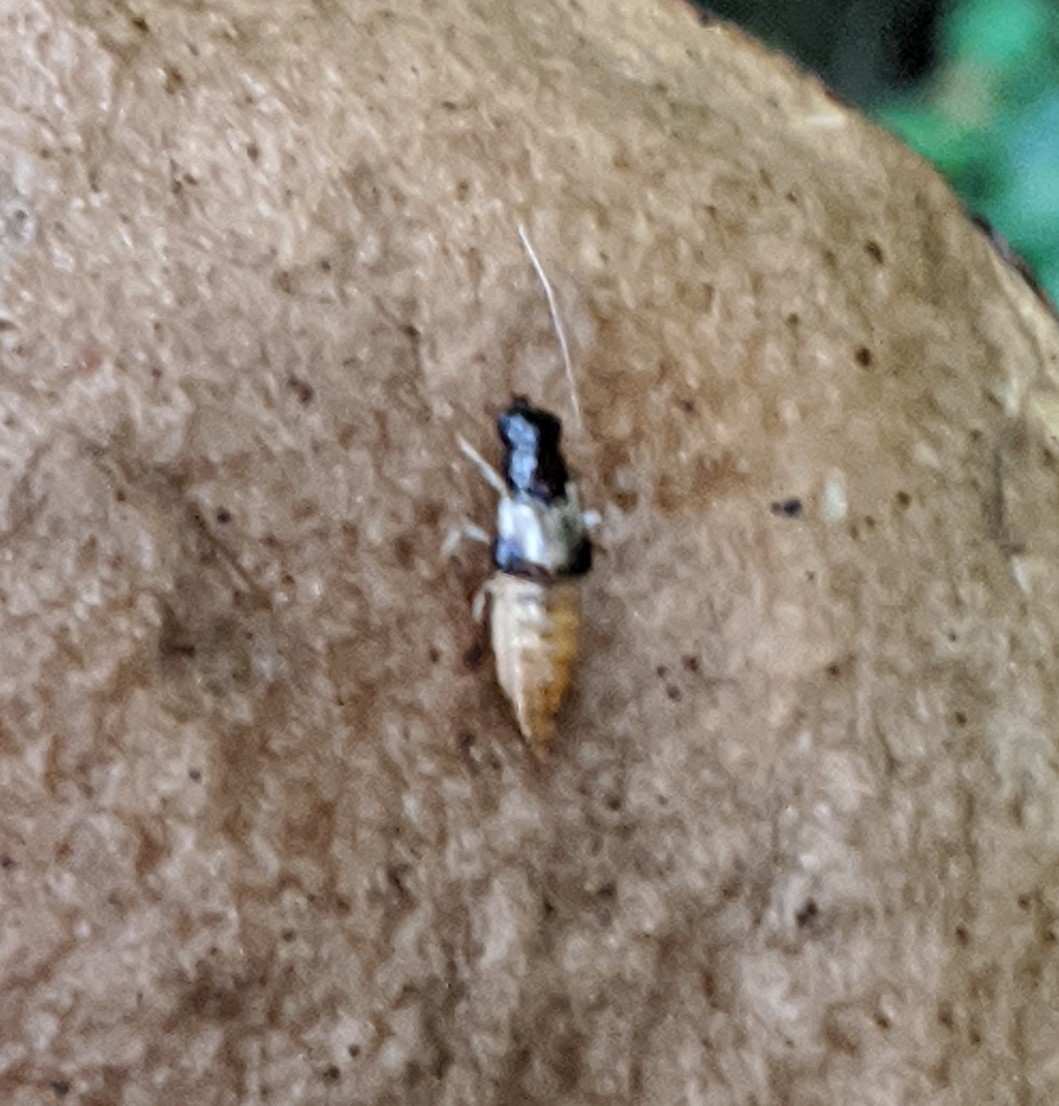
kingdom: Animalia
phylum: Arthropoda
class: Insecta
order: Coleoptera
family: Staphylinidae
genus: Oxyporus
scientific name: Oxyporus maxillosus
